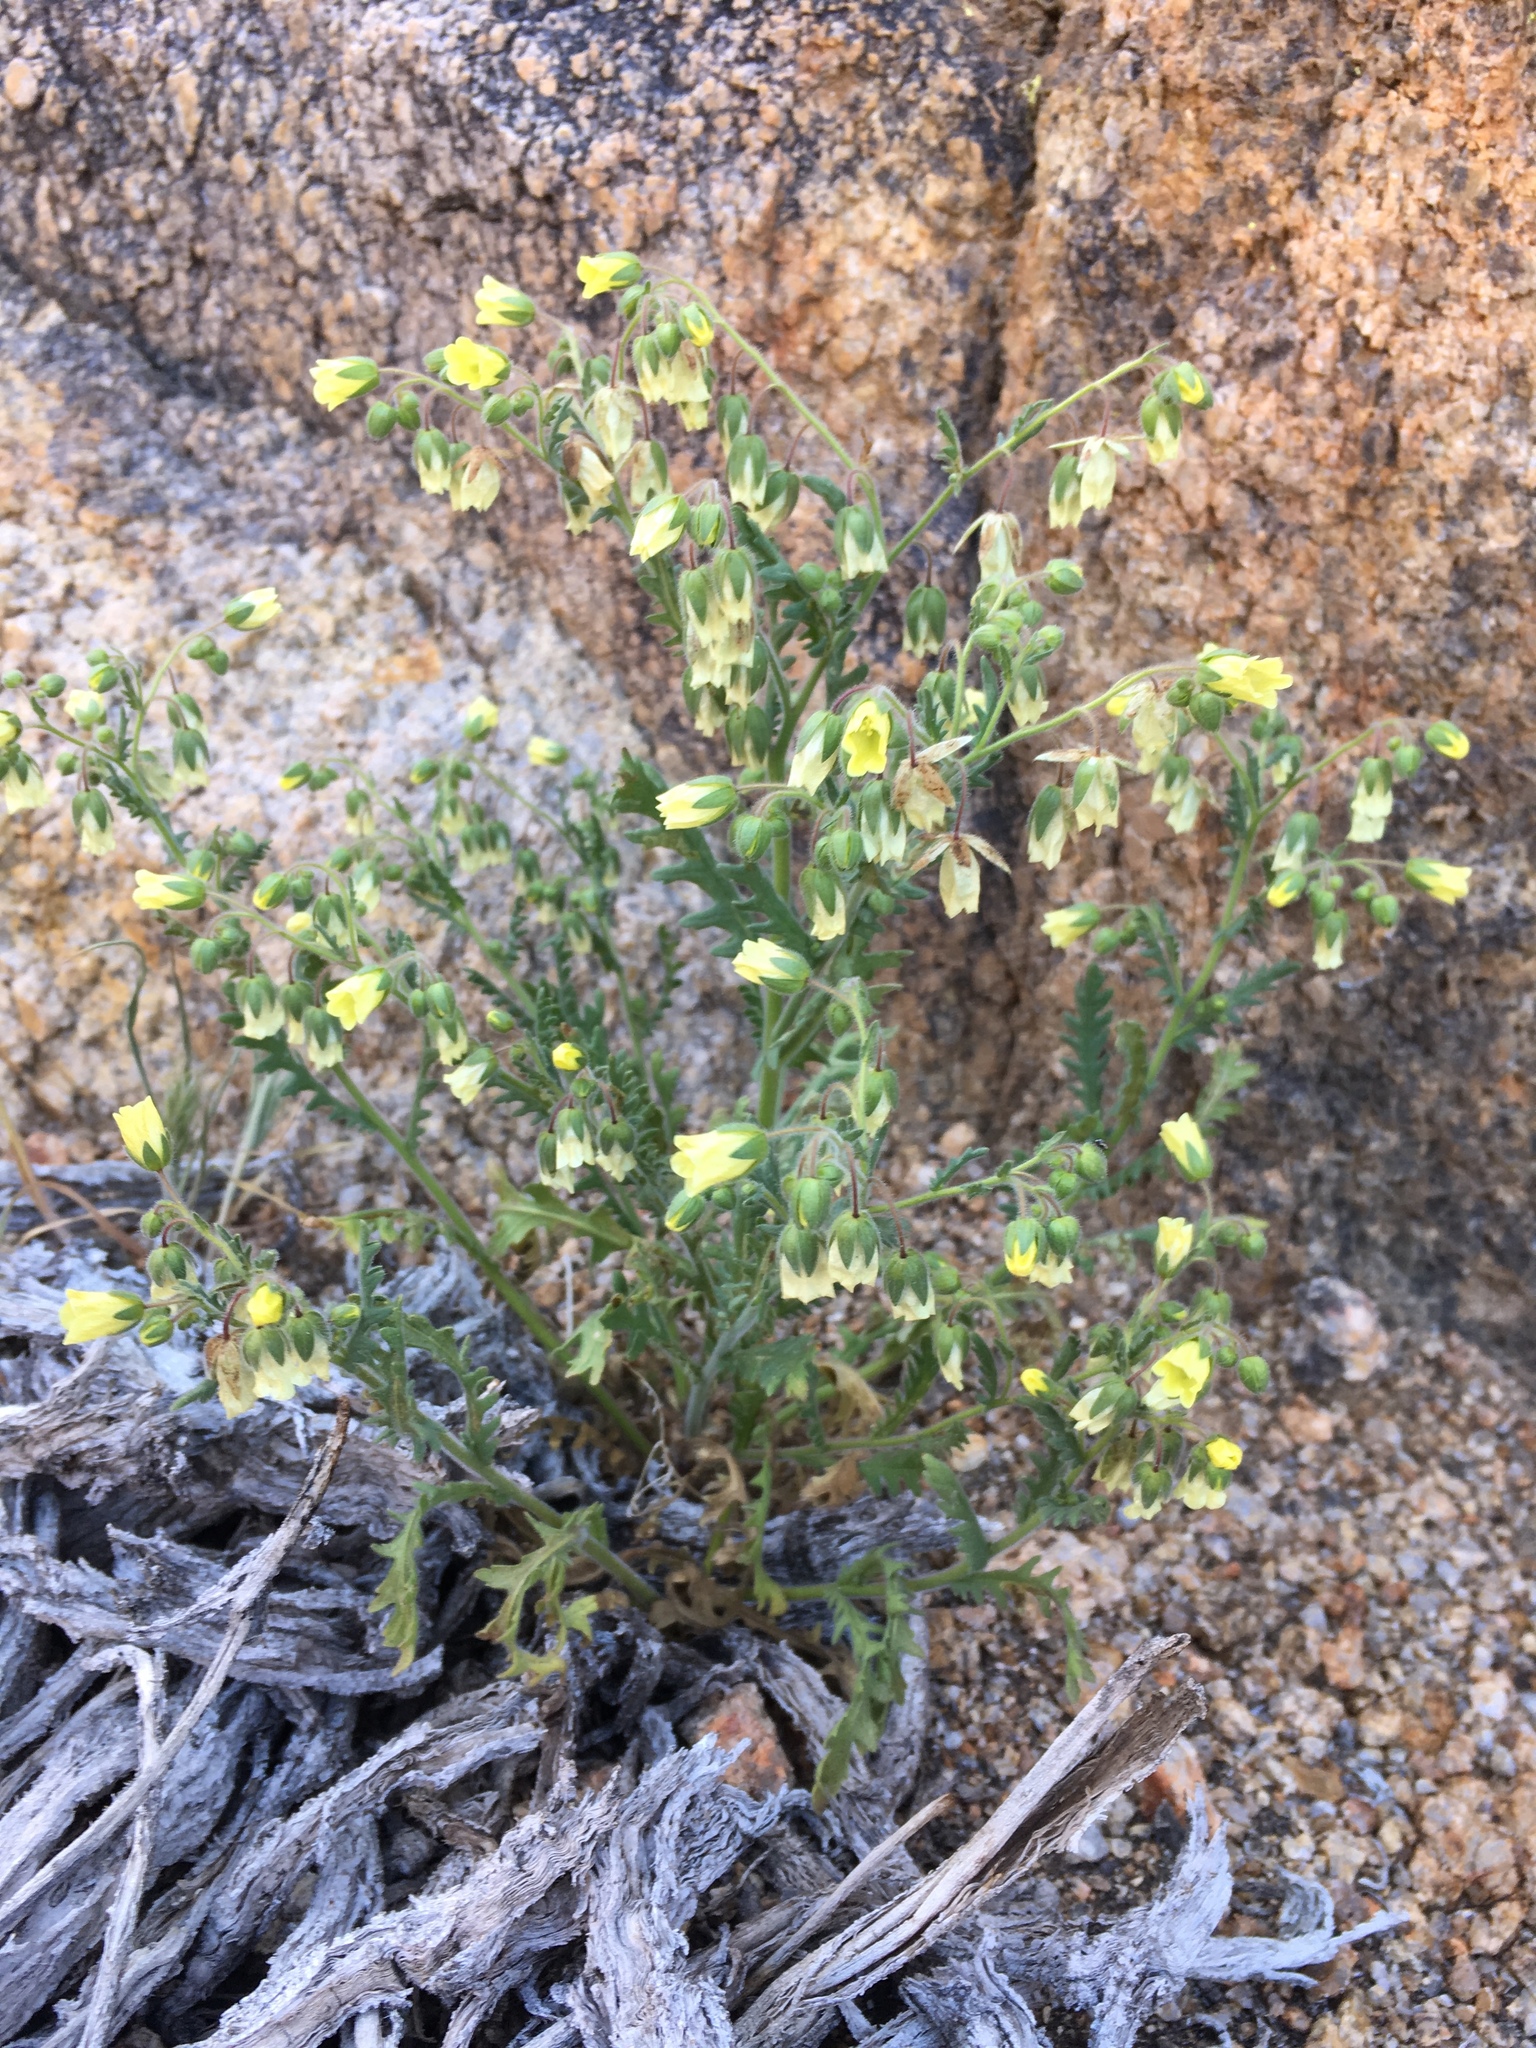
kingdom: Plantae
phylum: Tracheophyta
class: Magnoliopsida
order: Boraginales
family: Hydrophyllaceae
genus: Emmenanthe
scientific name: Emmenanthe penduliflora
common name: Whispering-bells
